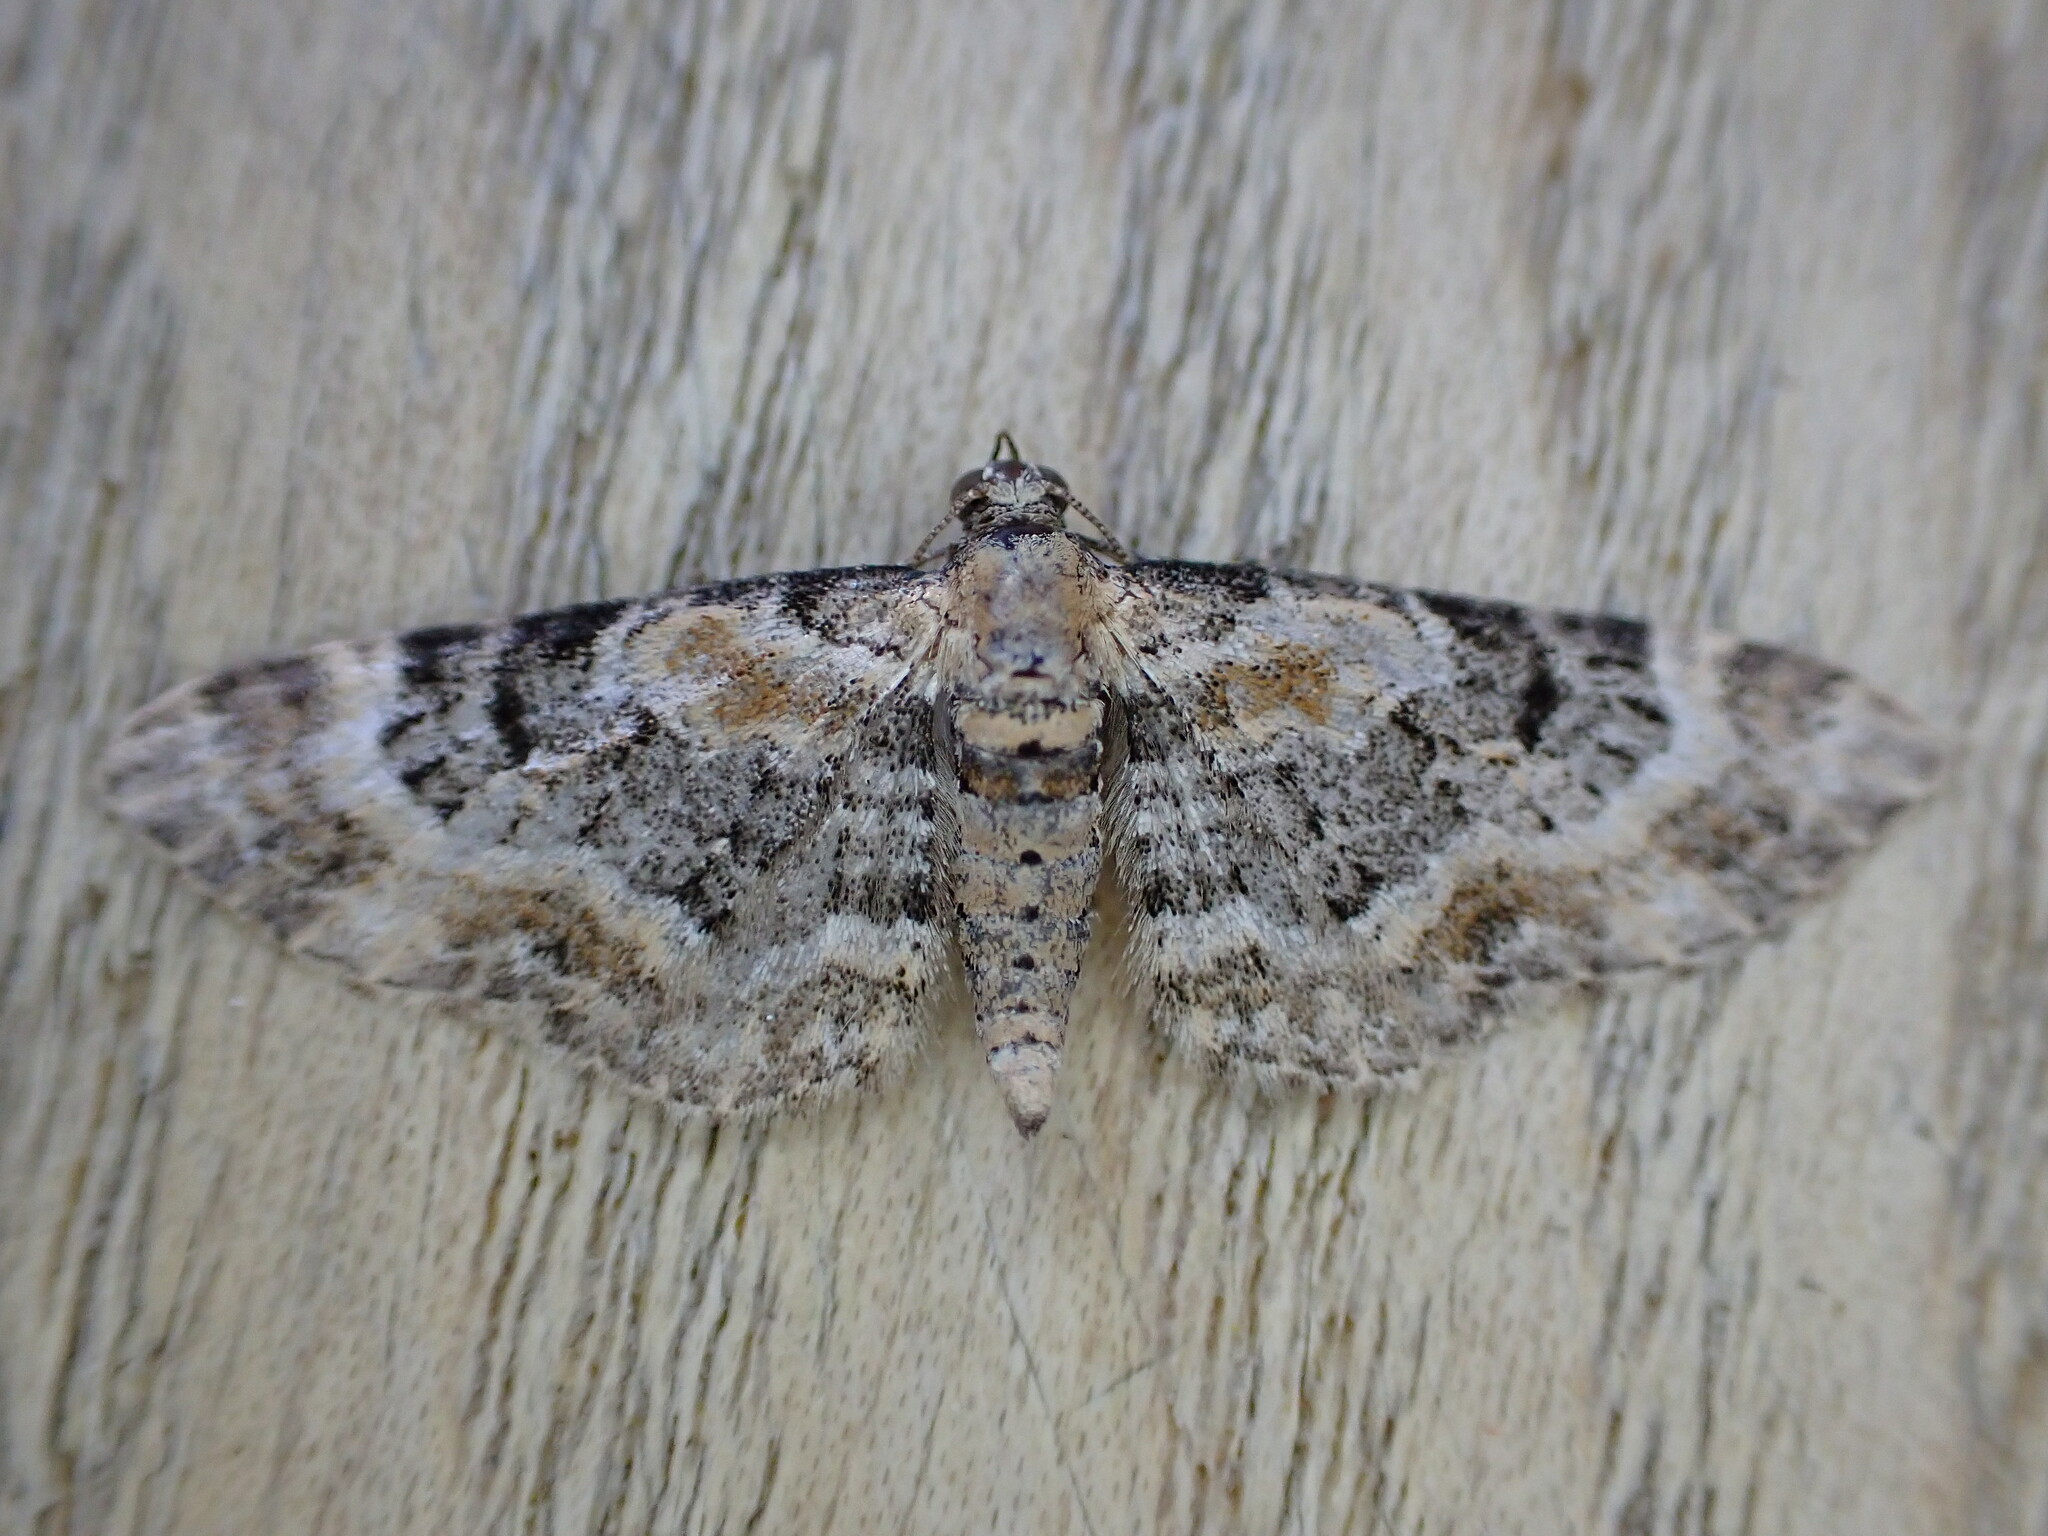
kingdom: Animalia
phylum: Arthropoda
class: Insecta
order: Lepidoptera
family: Geometridae
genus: Eupithecia
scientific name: Eupithecia pulchellata
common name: Foxglove pug
